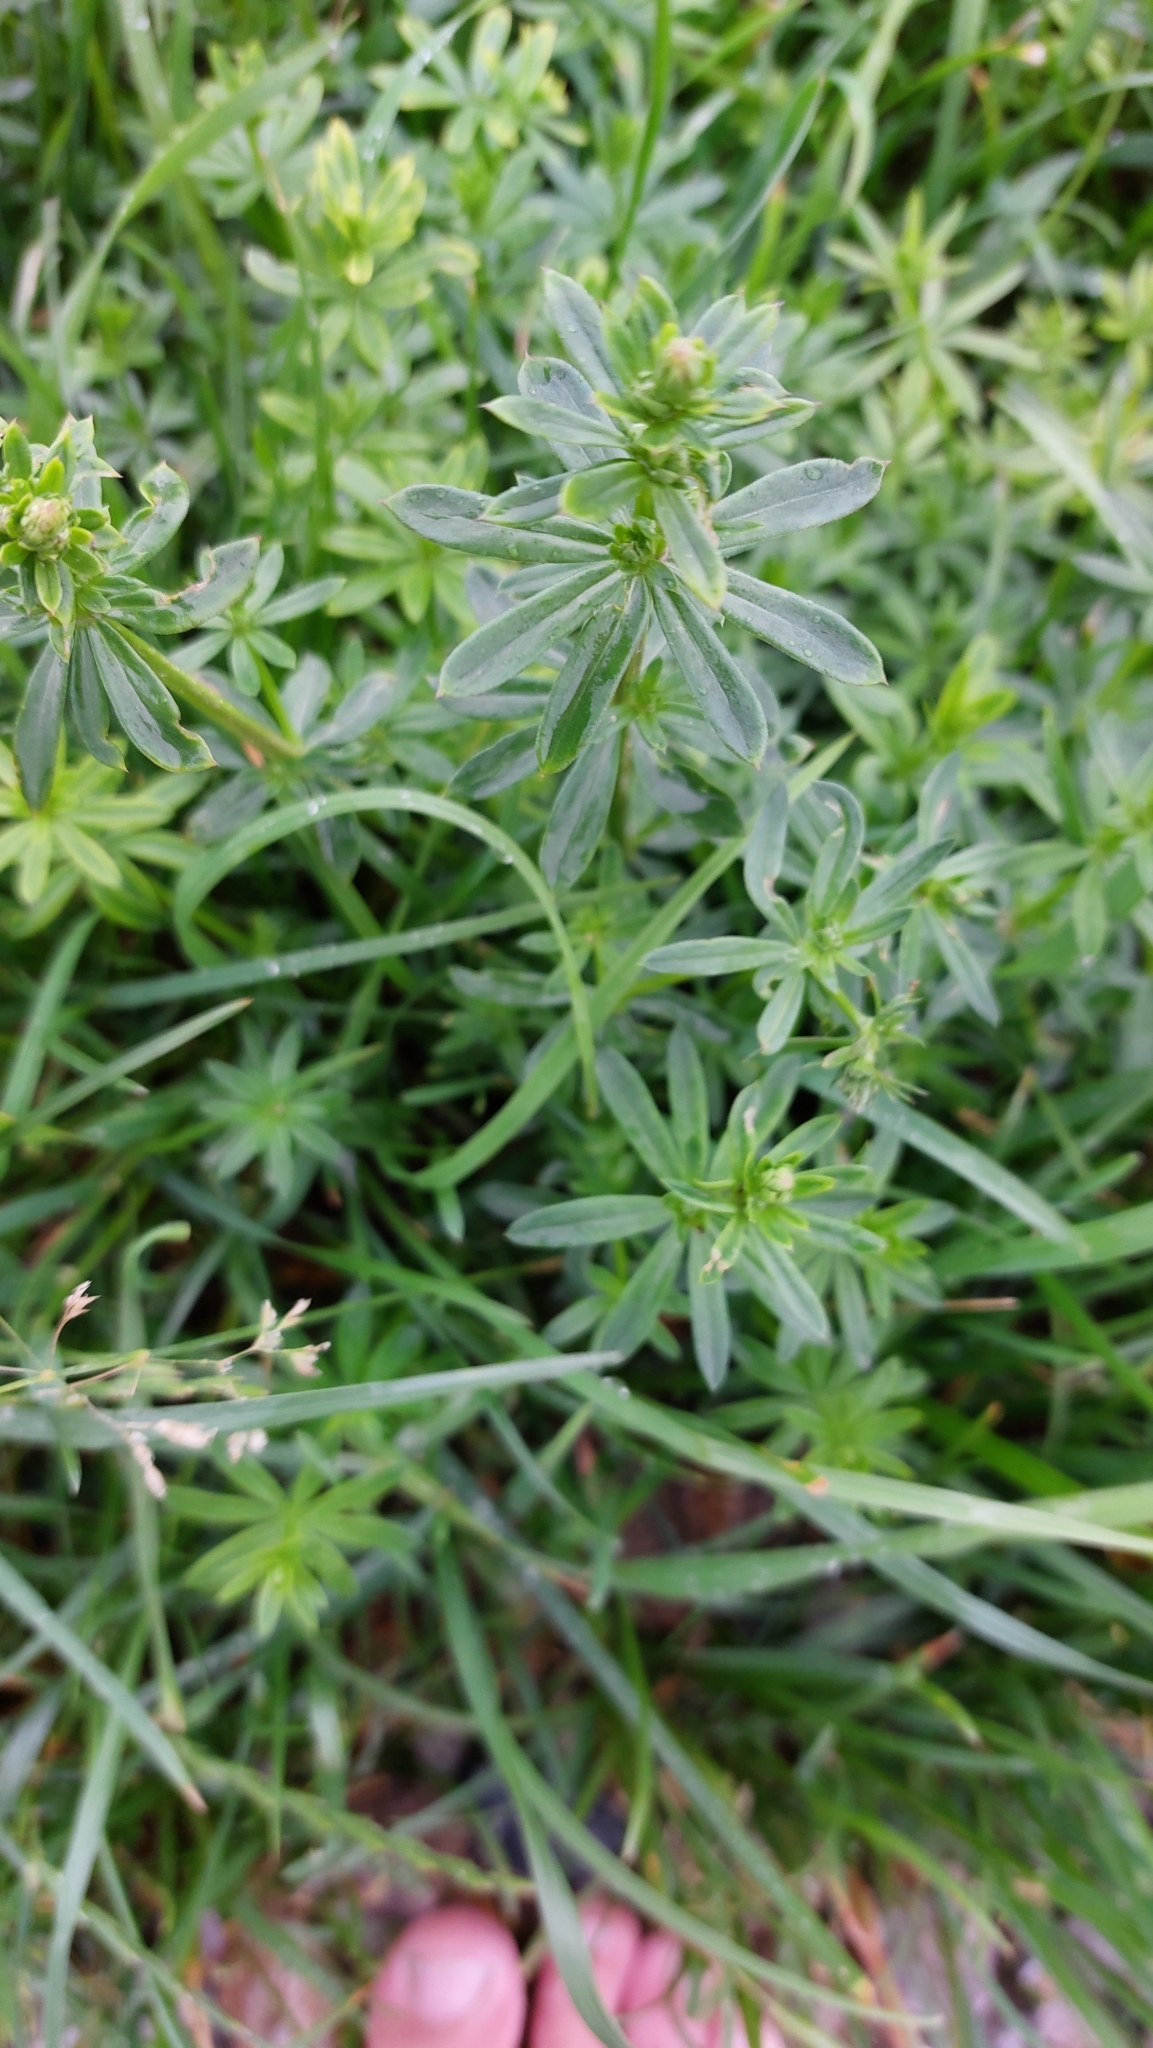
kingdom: Plantae
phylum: Tracheophyta
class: Magnoliopsida
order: Gentianales
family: Rubiaceae
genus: Galium
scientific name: Galium album
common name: White bedstraw
